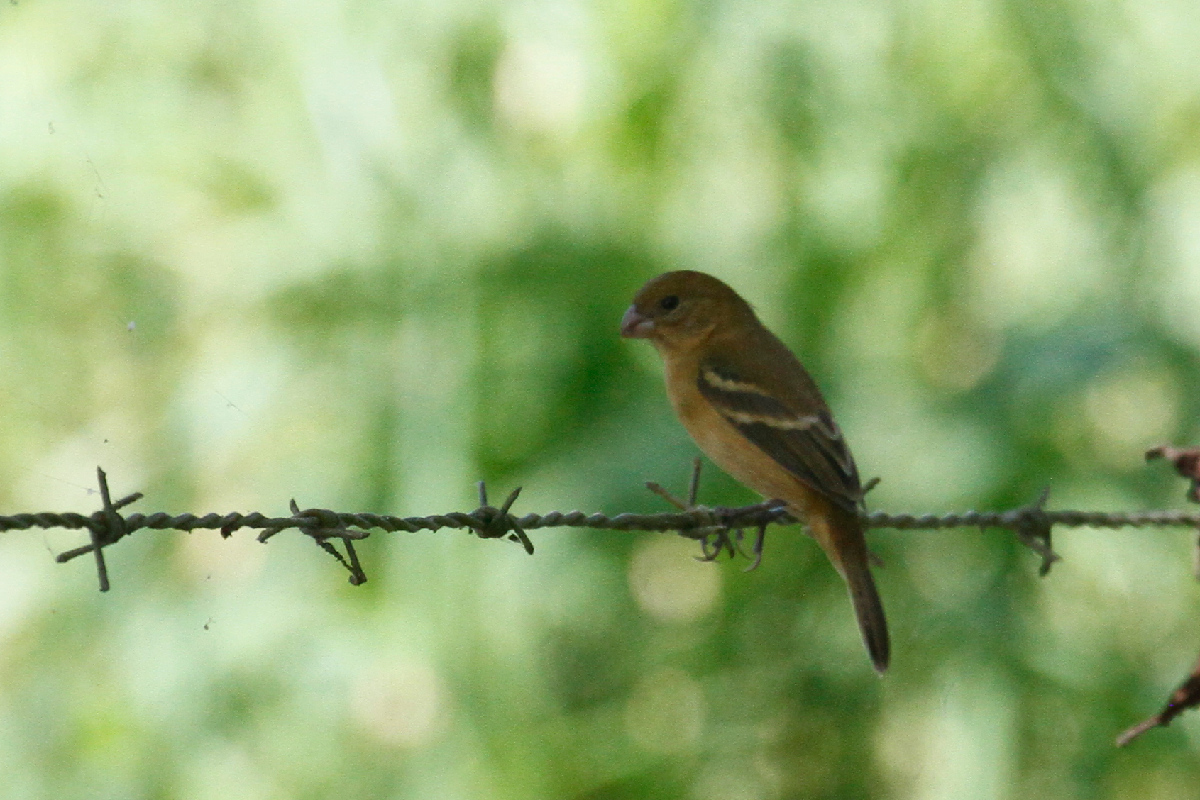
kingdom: Animalia
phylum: Chordata
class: Aves
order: Passeriformes
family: Thraupidae
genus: Sporophila
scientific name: Sporophila minuta
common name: Ruddy-breasted seedeater
